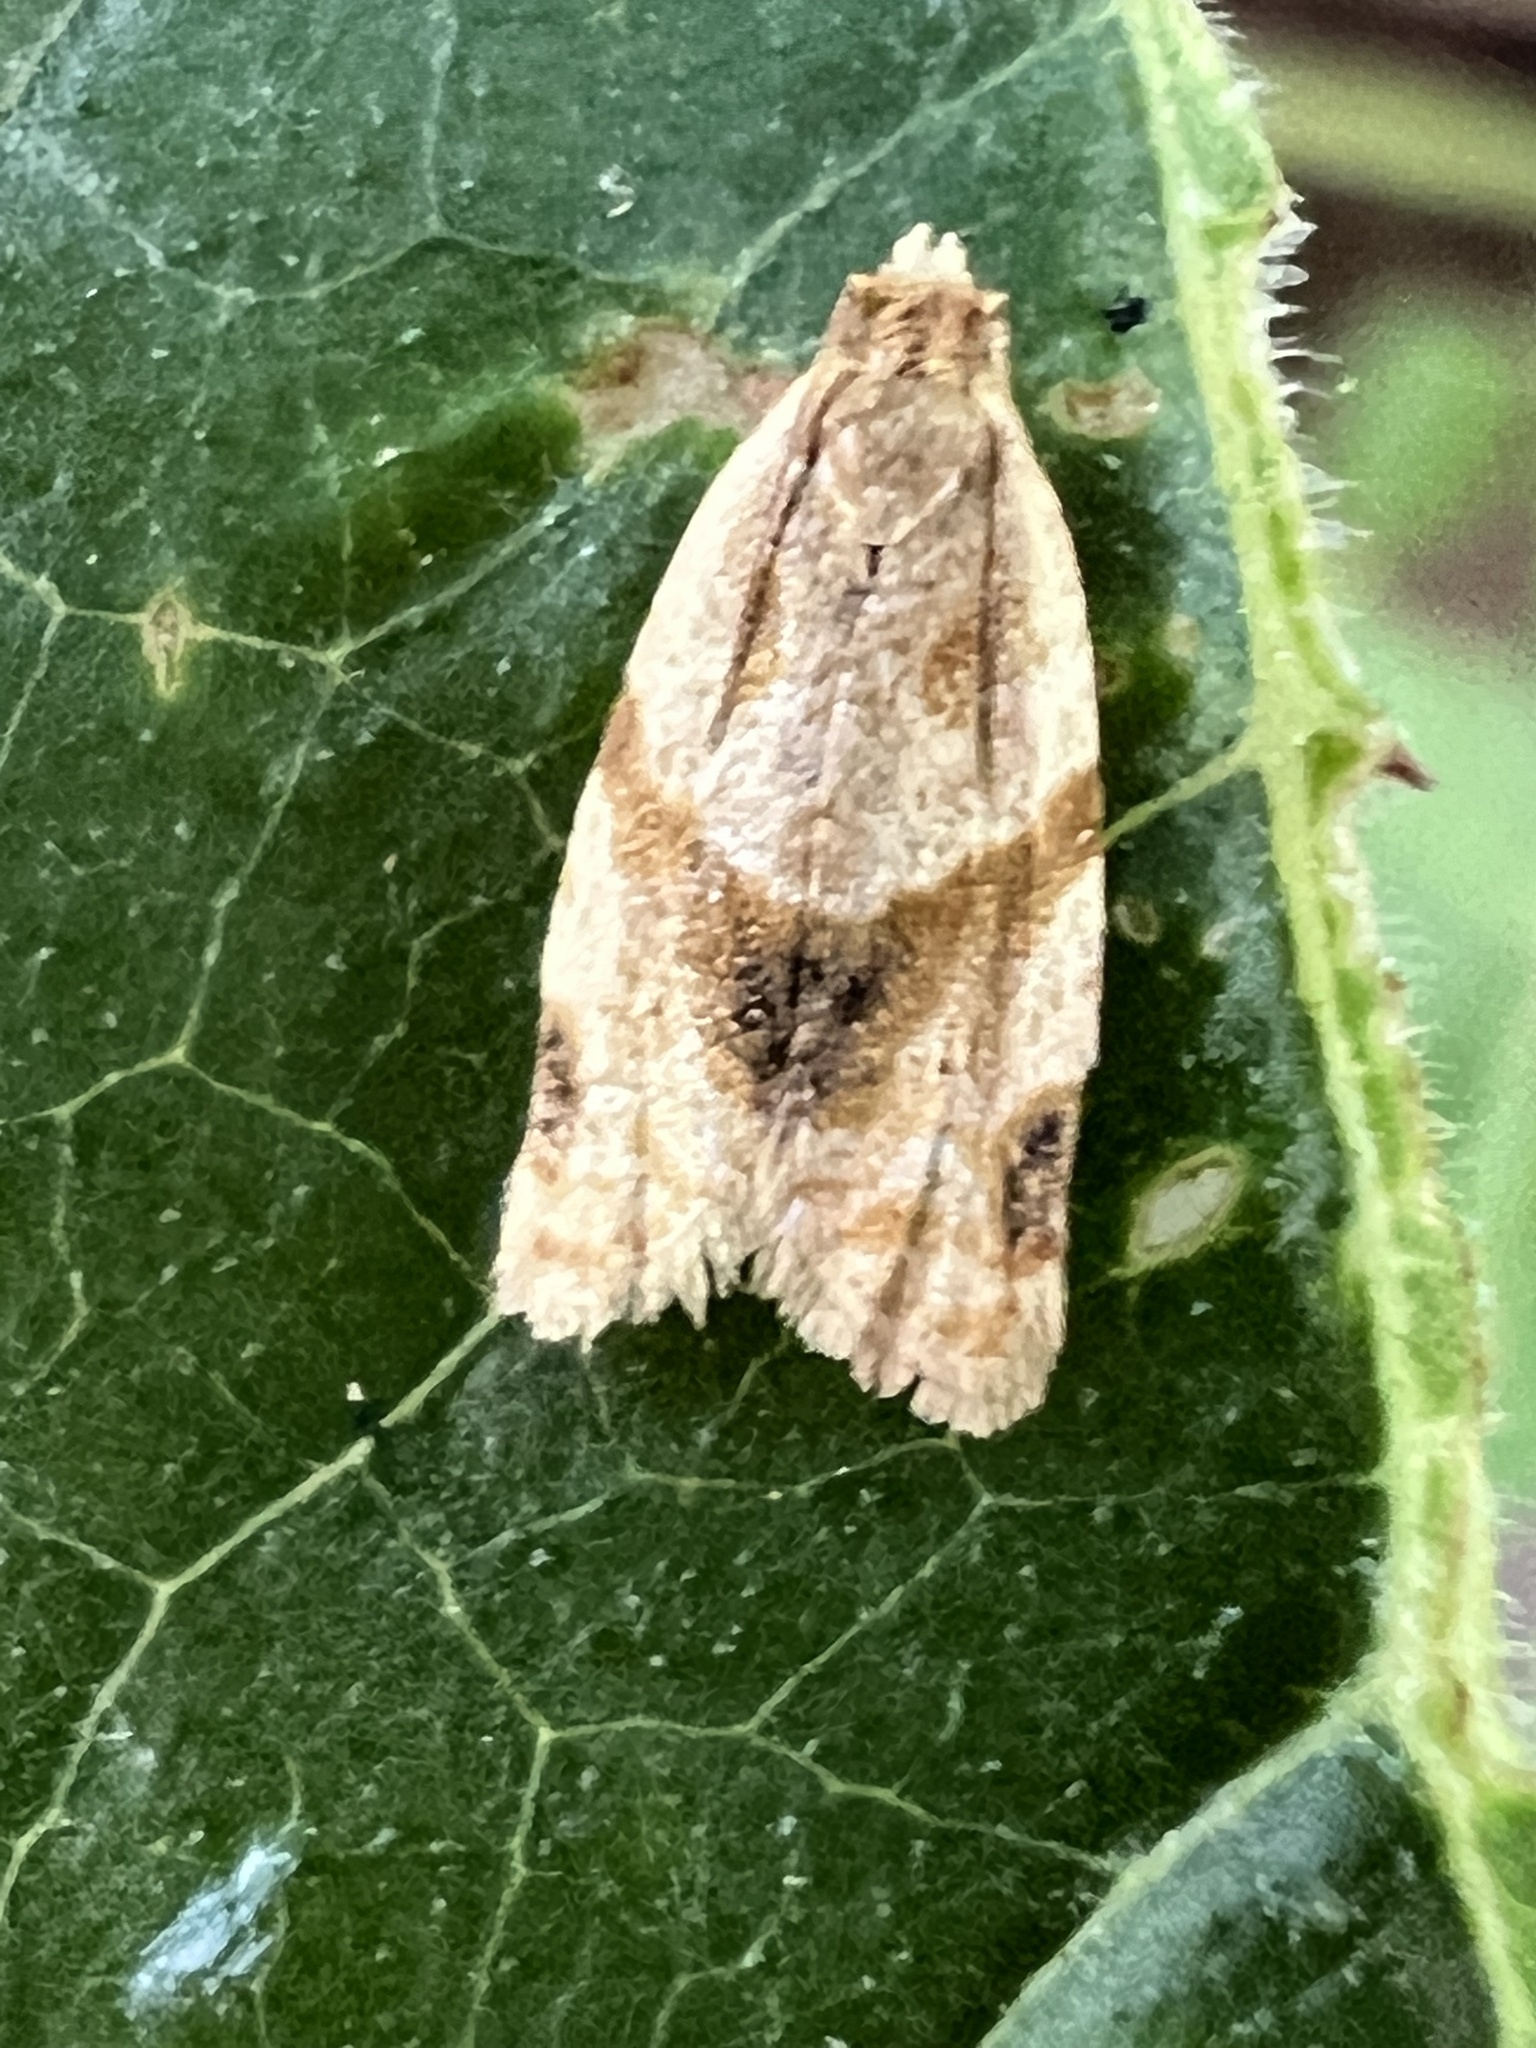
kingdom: Animalia
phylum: Arthropoda
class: Insecta
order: Lepidoptera
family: Tortricidae
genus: Clepsis
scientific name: Clepsis peritana
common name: Garden tortrix
